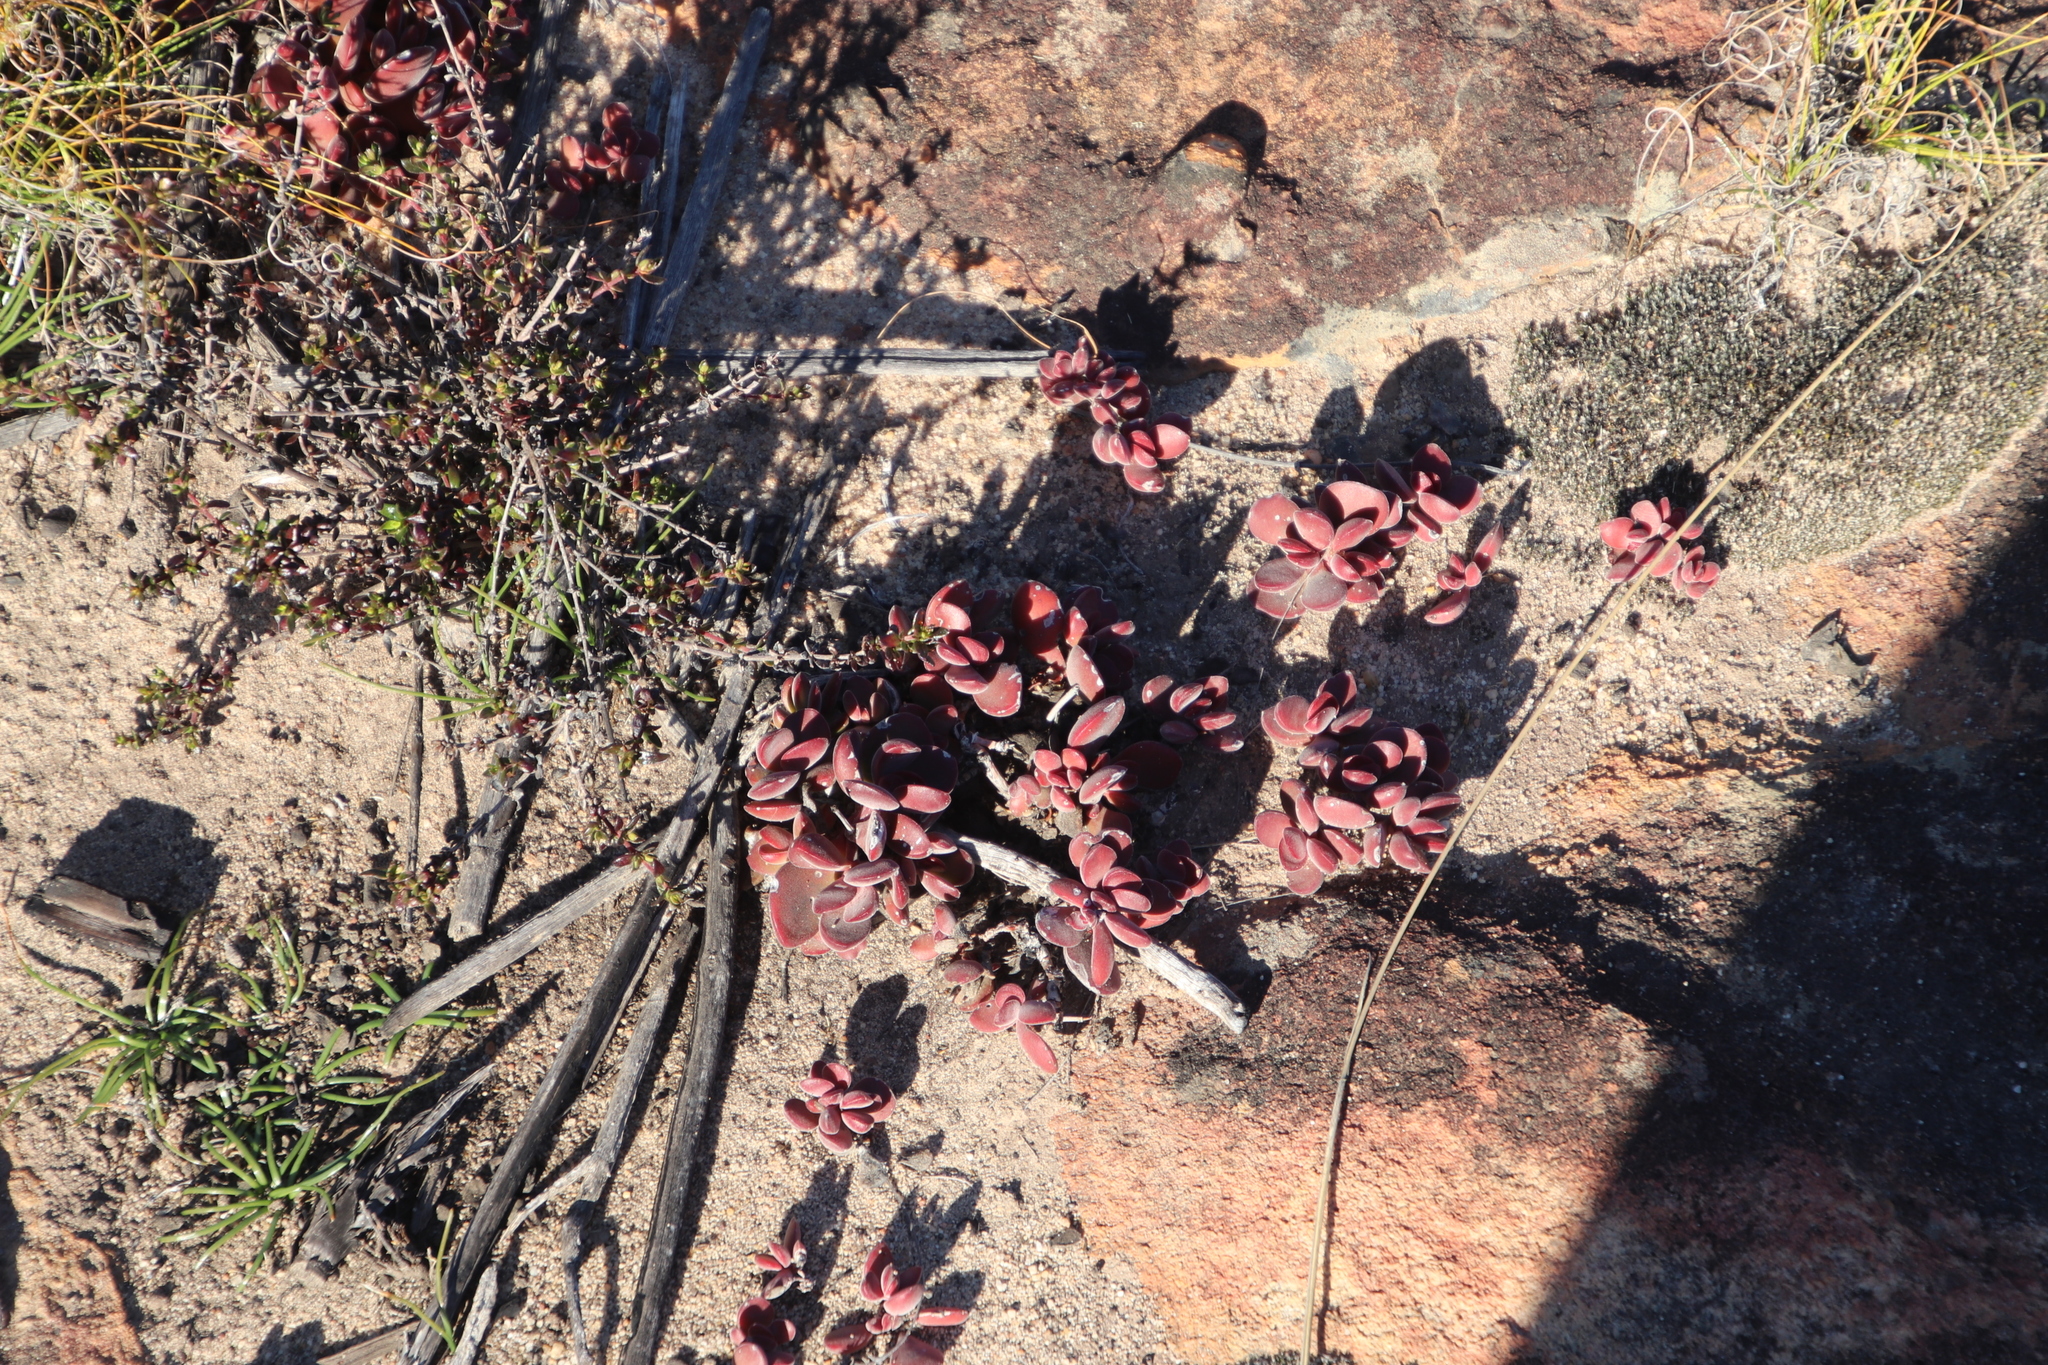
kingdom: Plantae
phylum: Tracheophyta
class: Magnoliopsida
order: Saxifragales
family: Crassulaceae
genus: Crassula
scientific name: Crassula clavata
